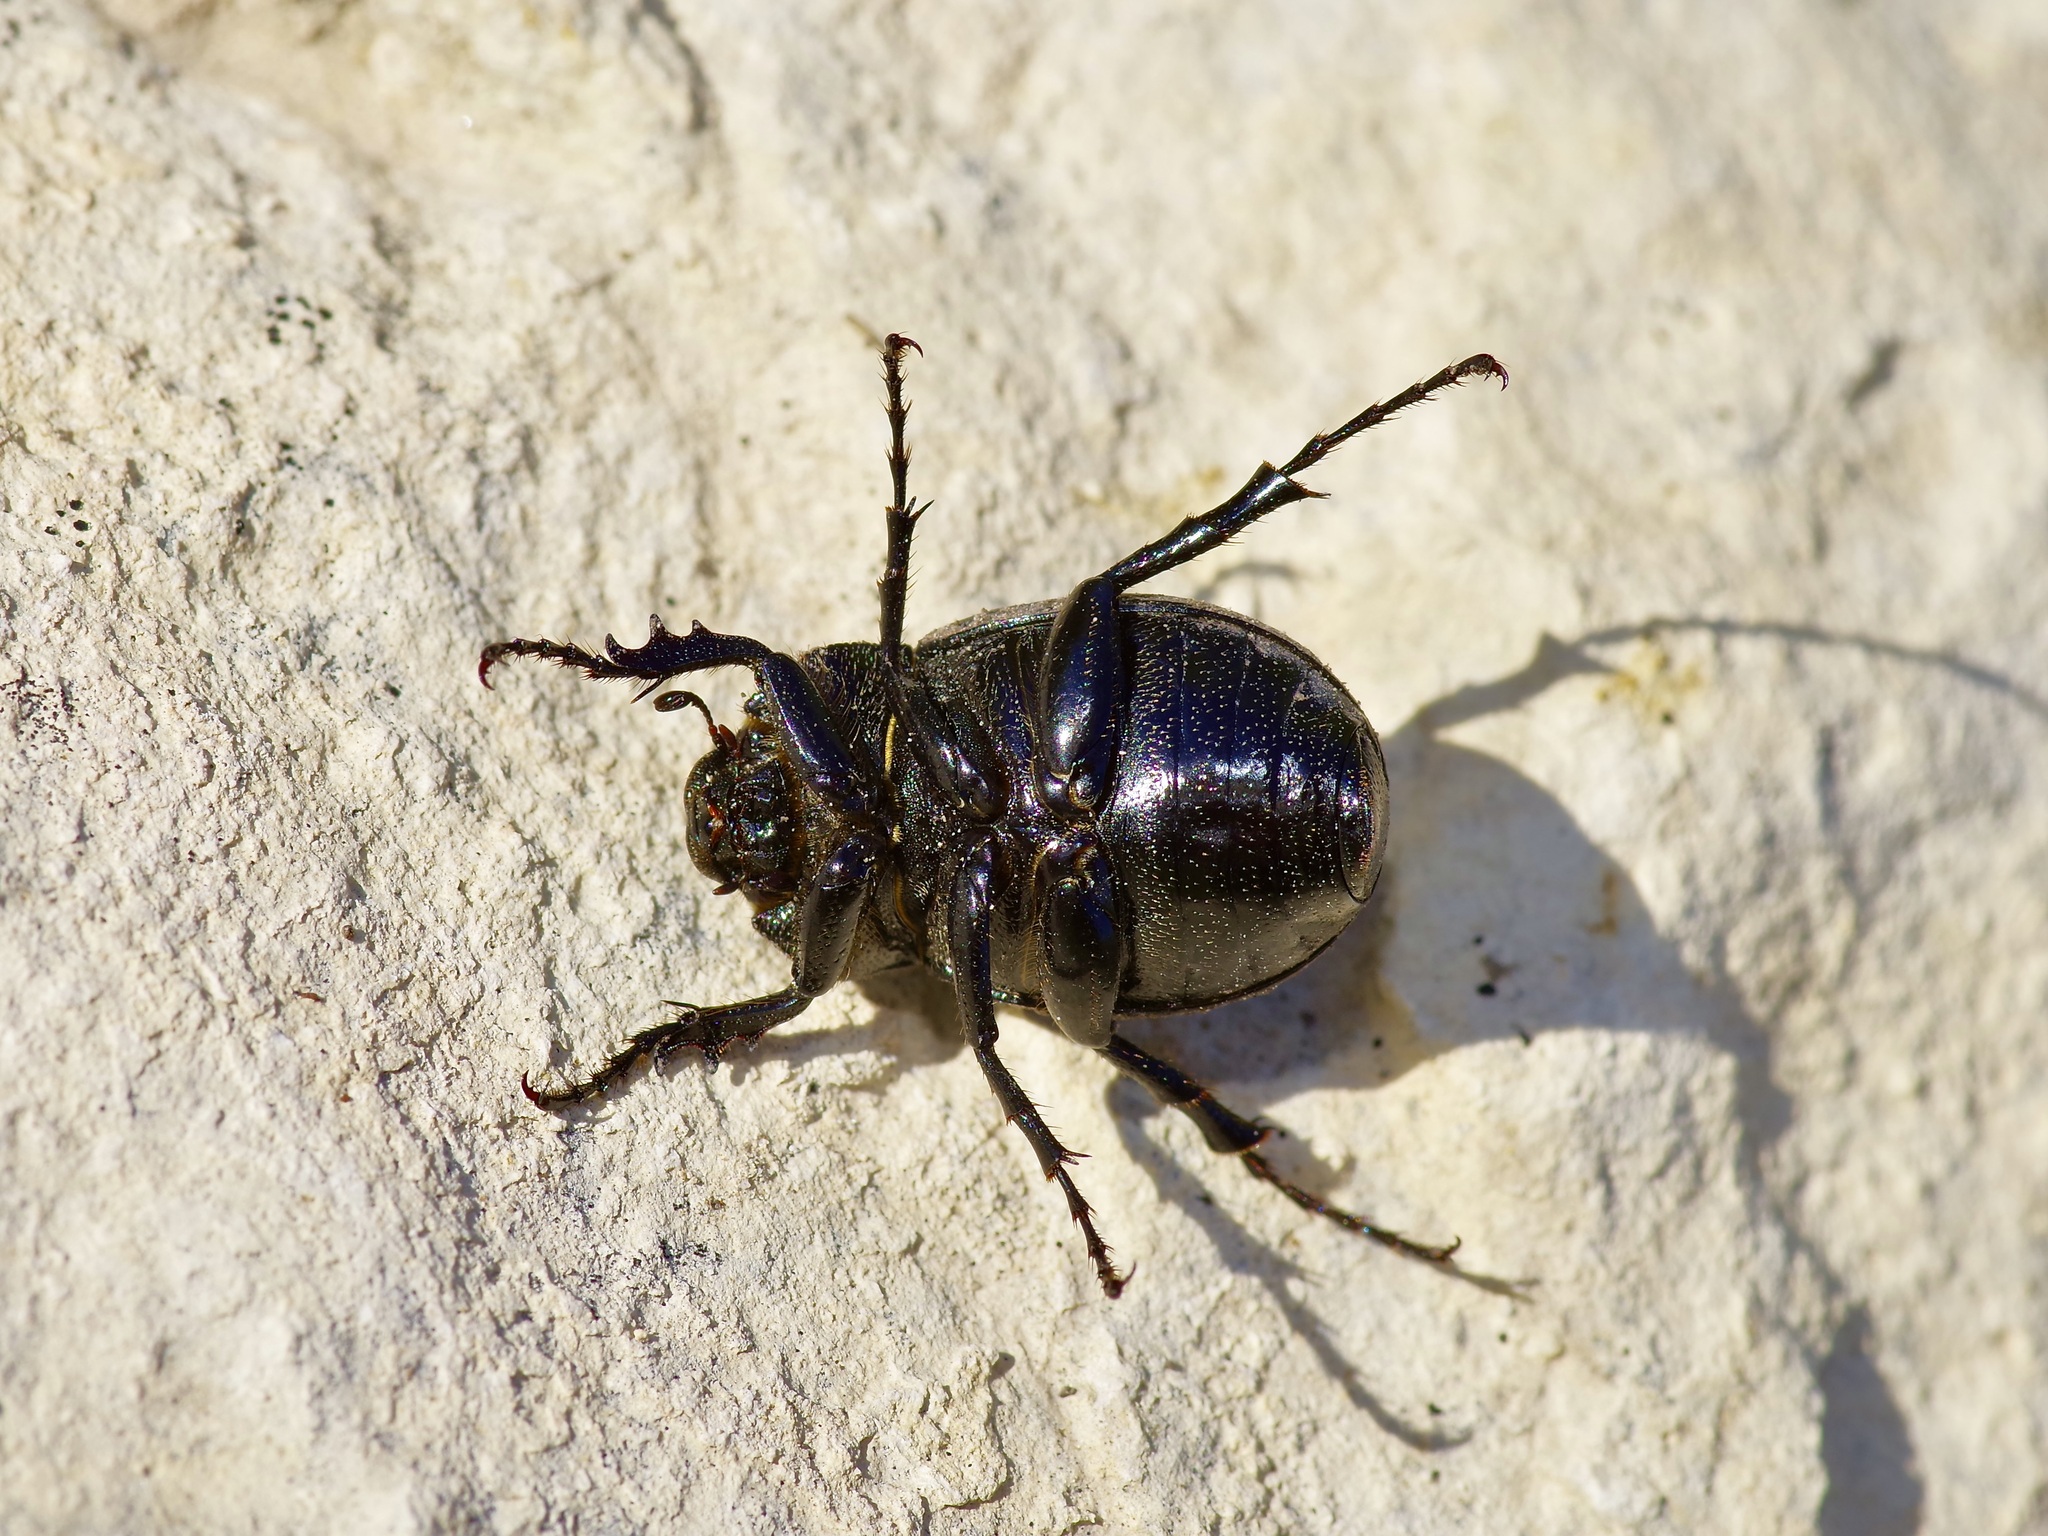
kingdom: Animalia
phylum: Arthropoda
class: Insecta
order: Coleoptera
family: Scarabaeidae
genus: Phyllophaga
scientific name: Phyllophaga cribrosa
